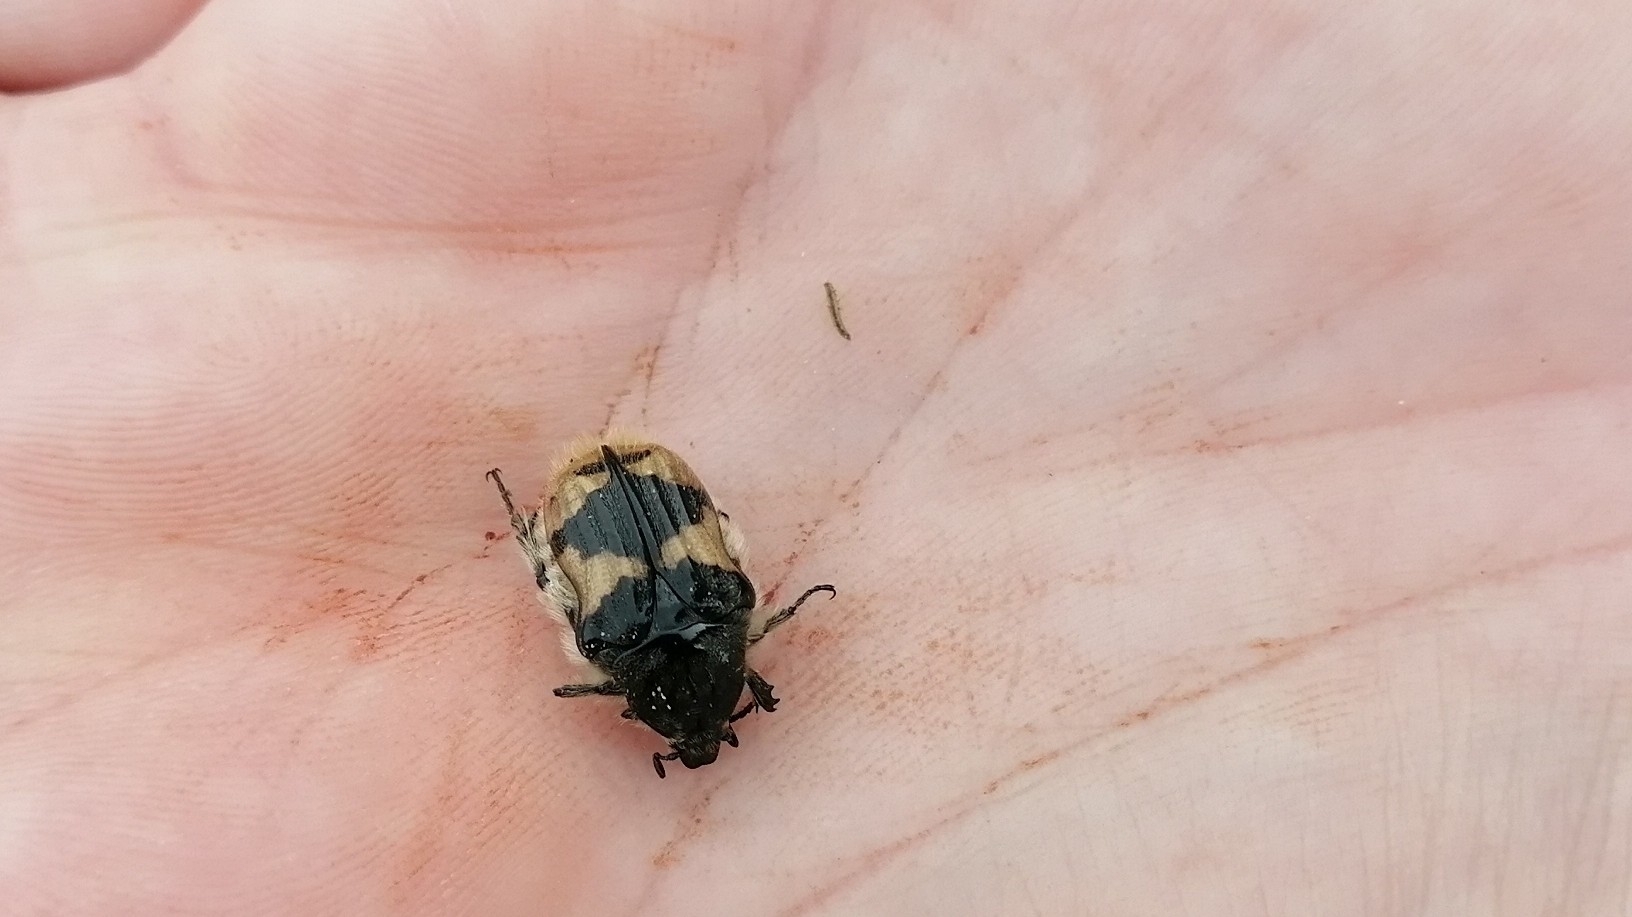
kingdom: Animalia
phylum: Arthropoda
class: Insecta
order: Coleoptera
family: Scarabaeidae
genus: Euphoria
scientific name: Euphoria basalis
